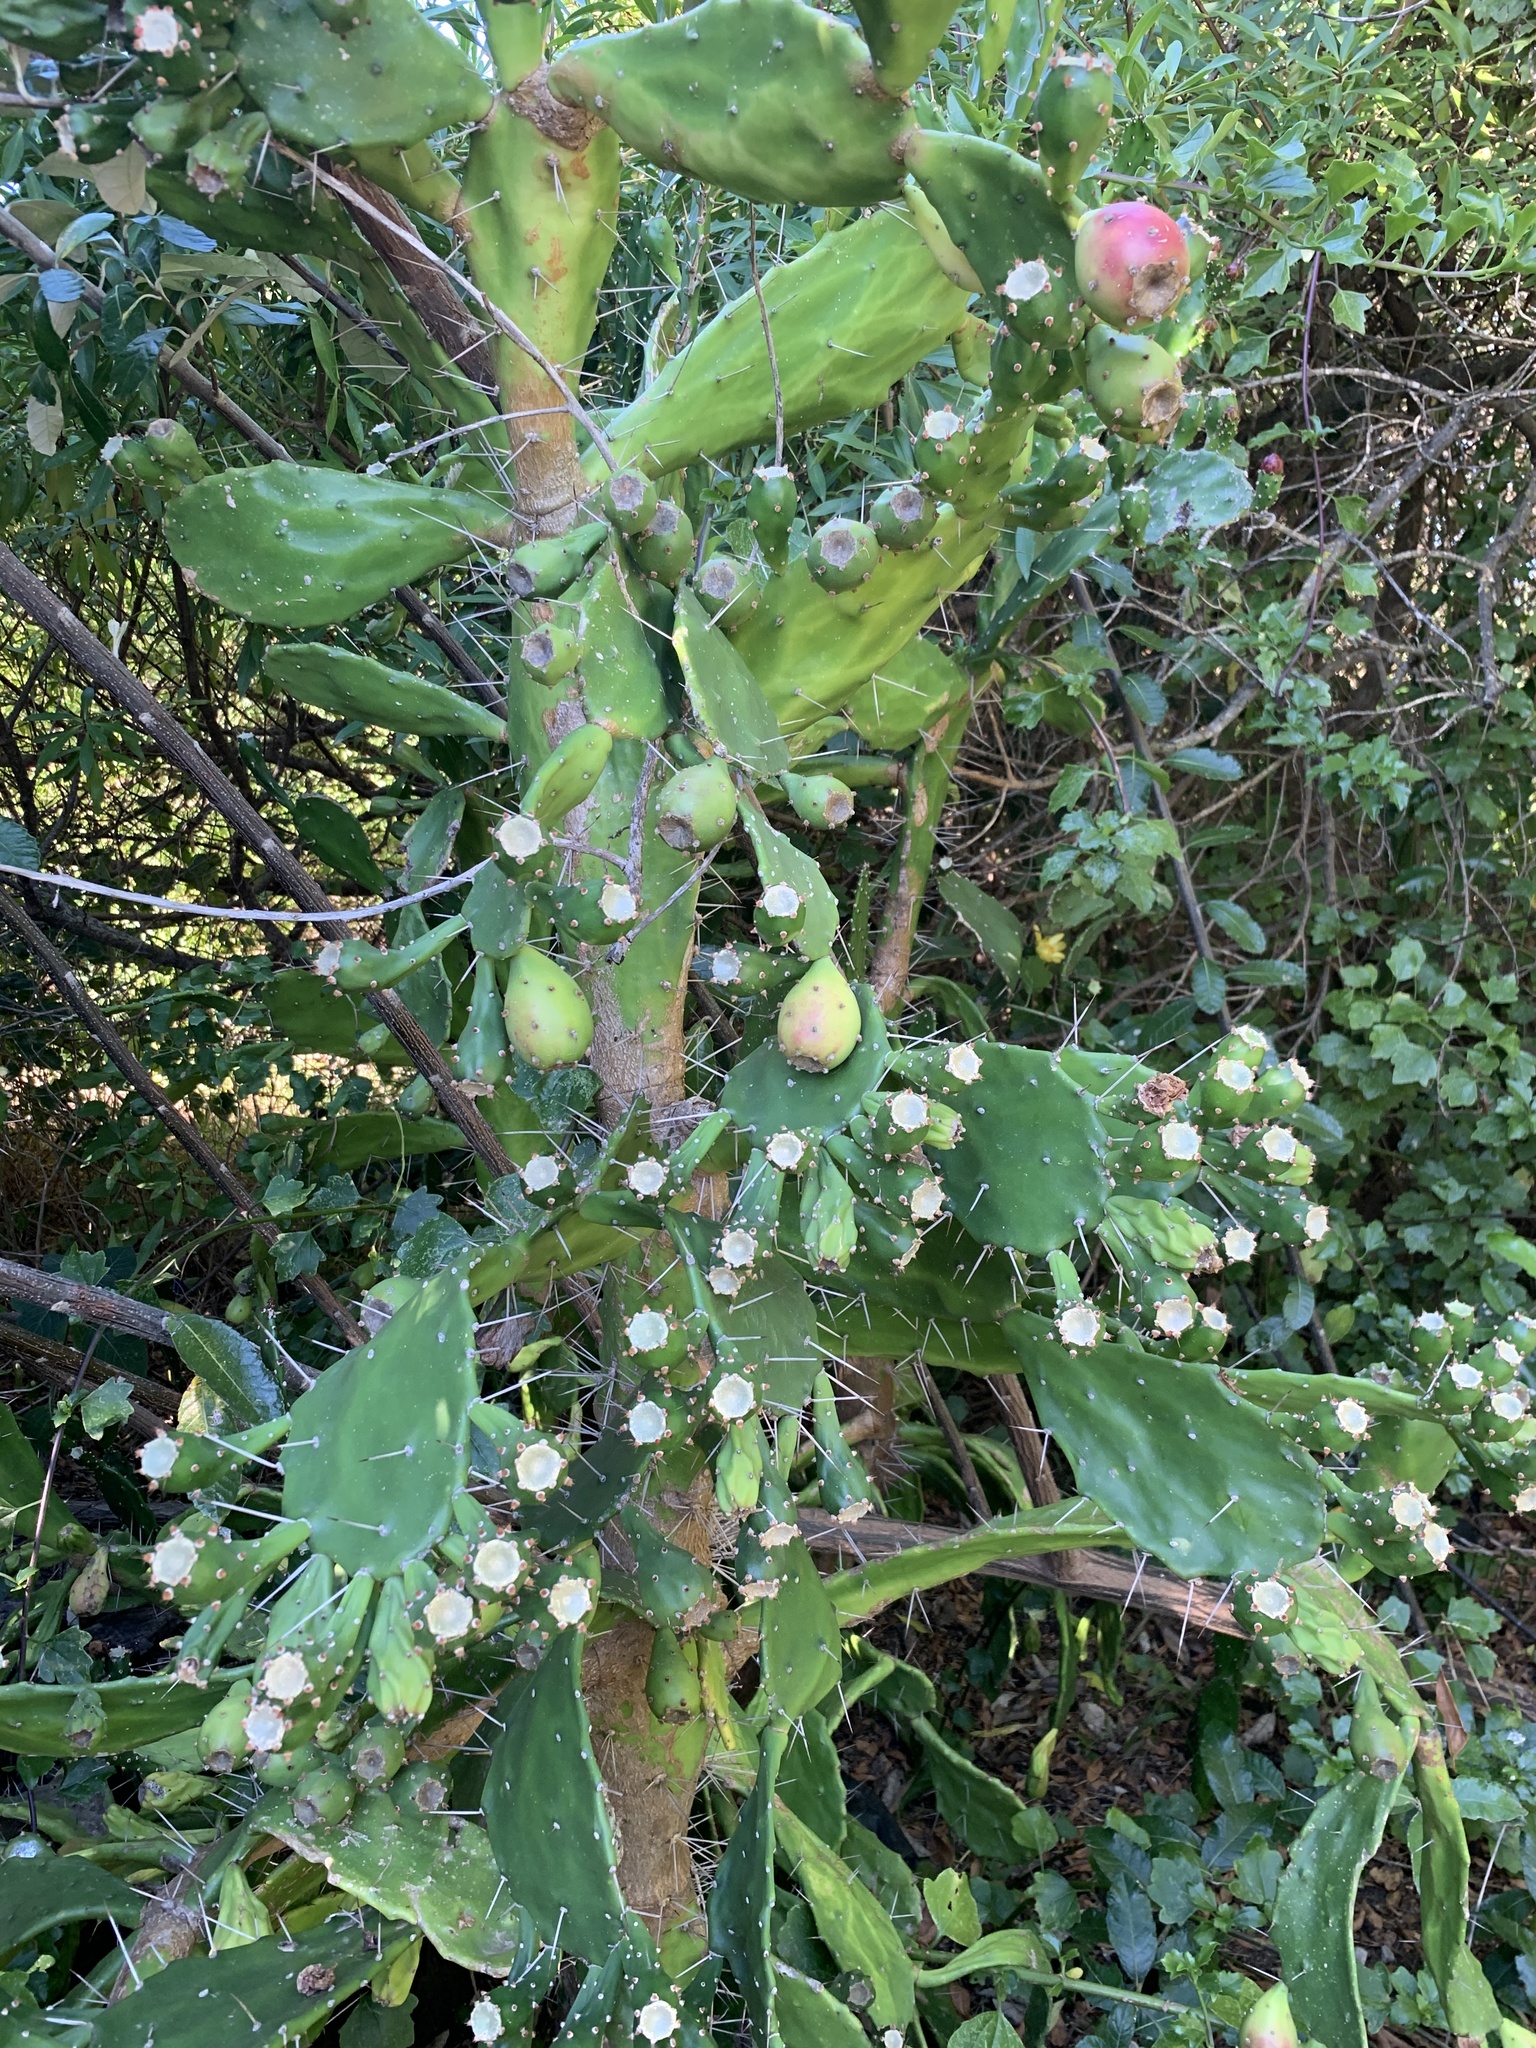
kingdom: Plantae
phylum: Tracheophyta
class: Magnoliopsida
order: Caryophyllales
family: Cactaceae
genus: Opuntia
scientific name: Opuntia monacantha
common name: Common pricklypear
